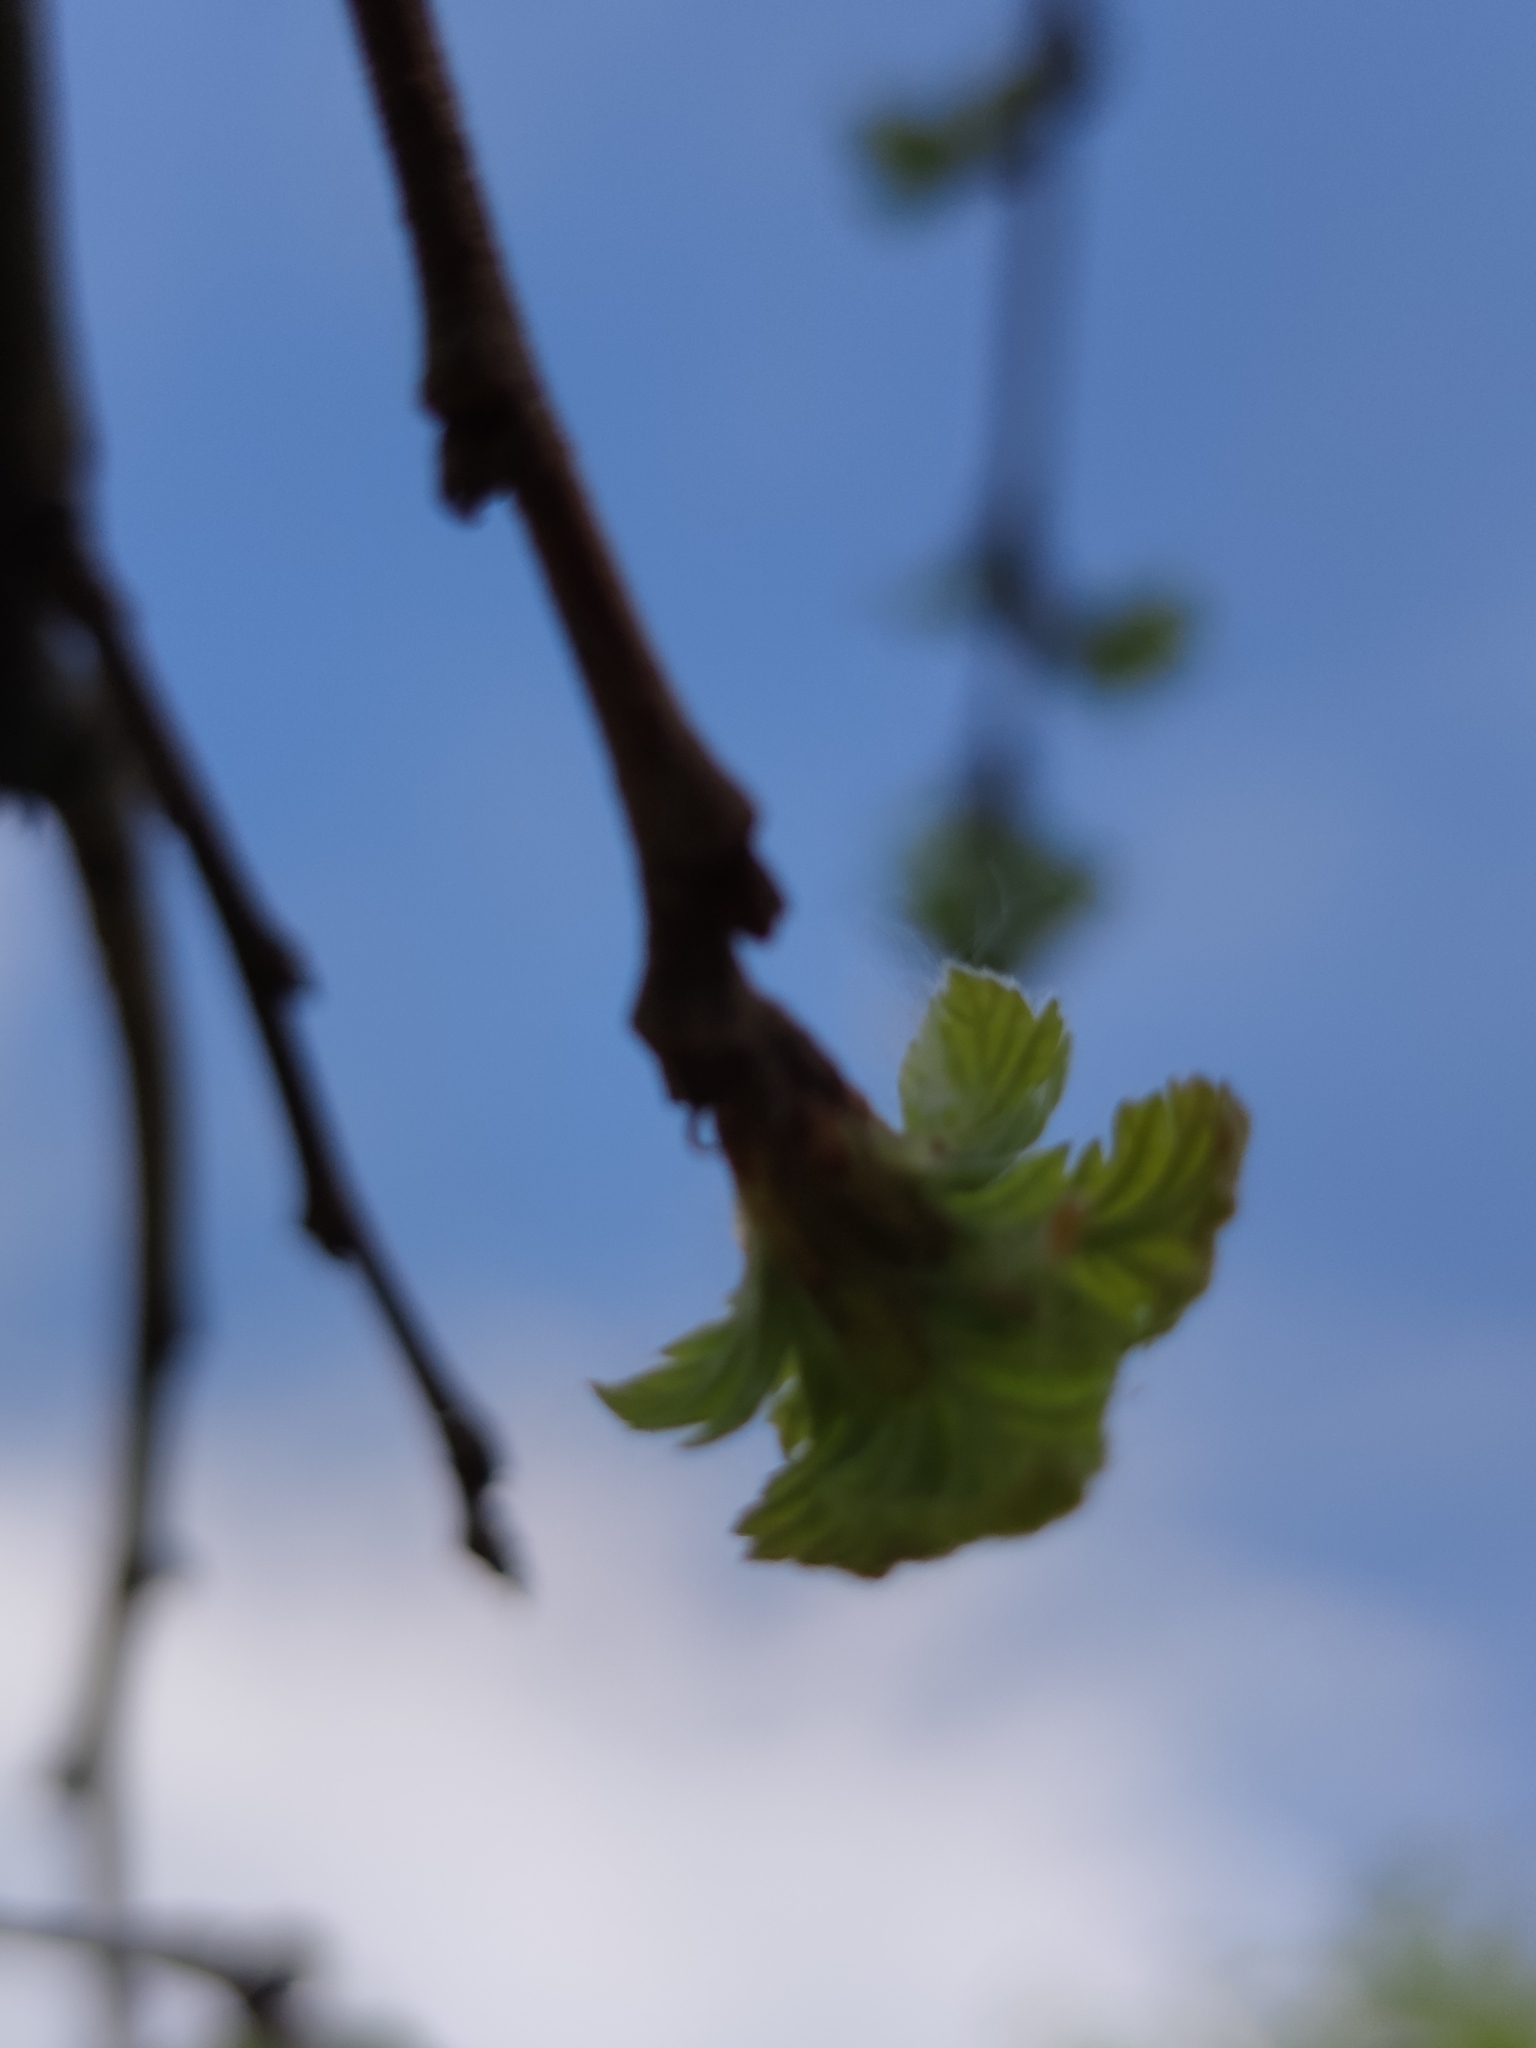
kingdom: Plantae
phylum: Tracheophyta
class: Magnoliopsida
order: Fagales
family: Fagaceae
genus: Quercus
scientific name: Quercus cerris
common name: Turkey oak
